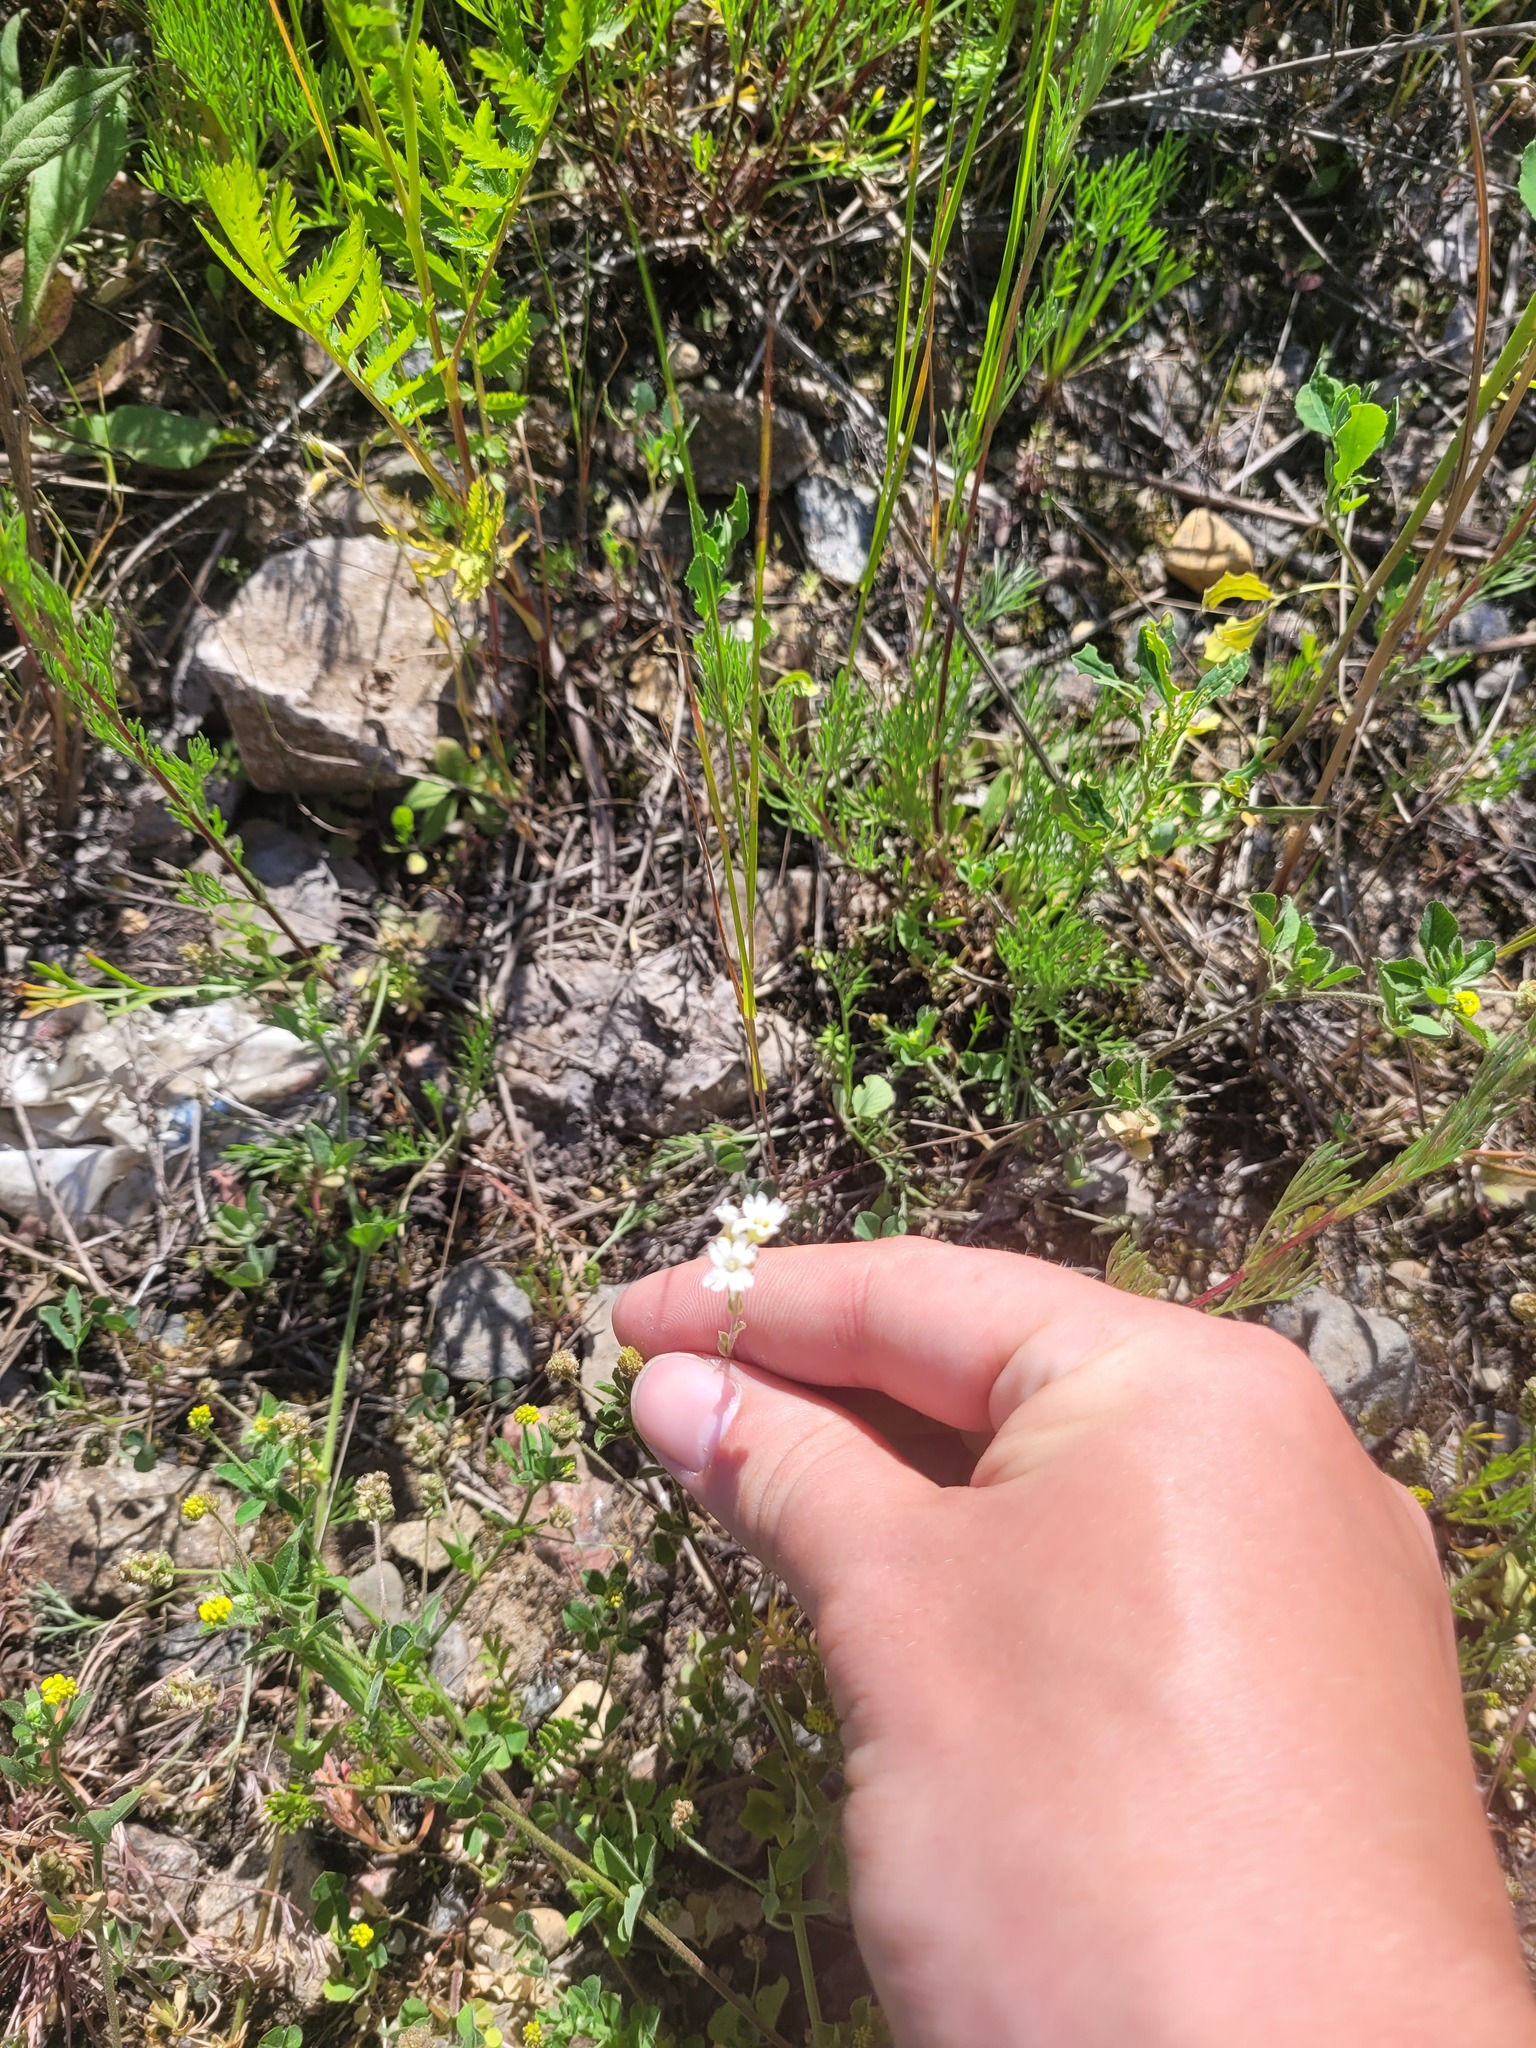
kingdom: Plantae
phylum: Tracheophyta
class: Magnoliopsida
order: Brassicales
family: Brassicaceae
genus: Berteroa
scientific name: Berteroa incana
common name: Hoary alison
